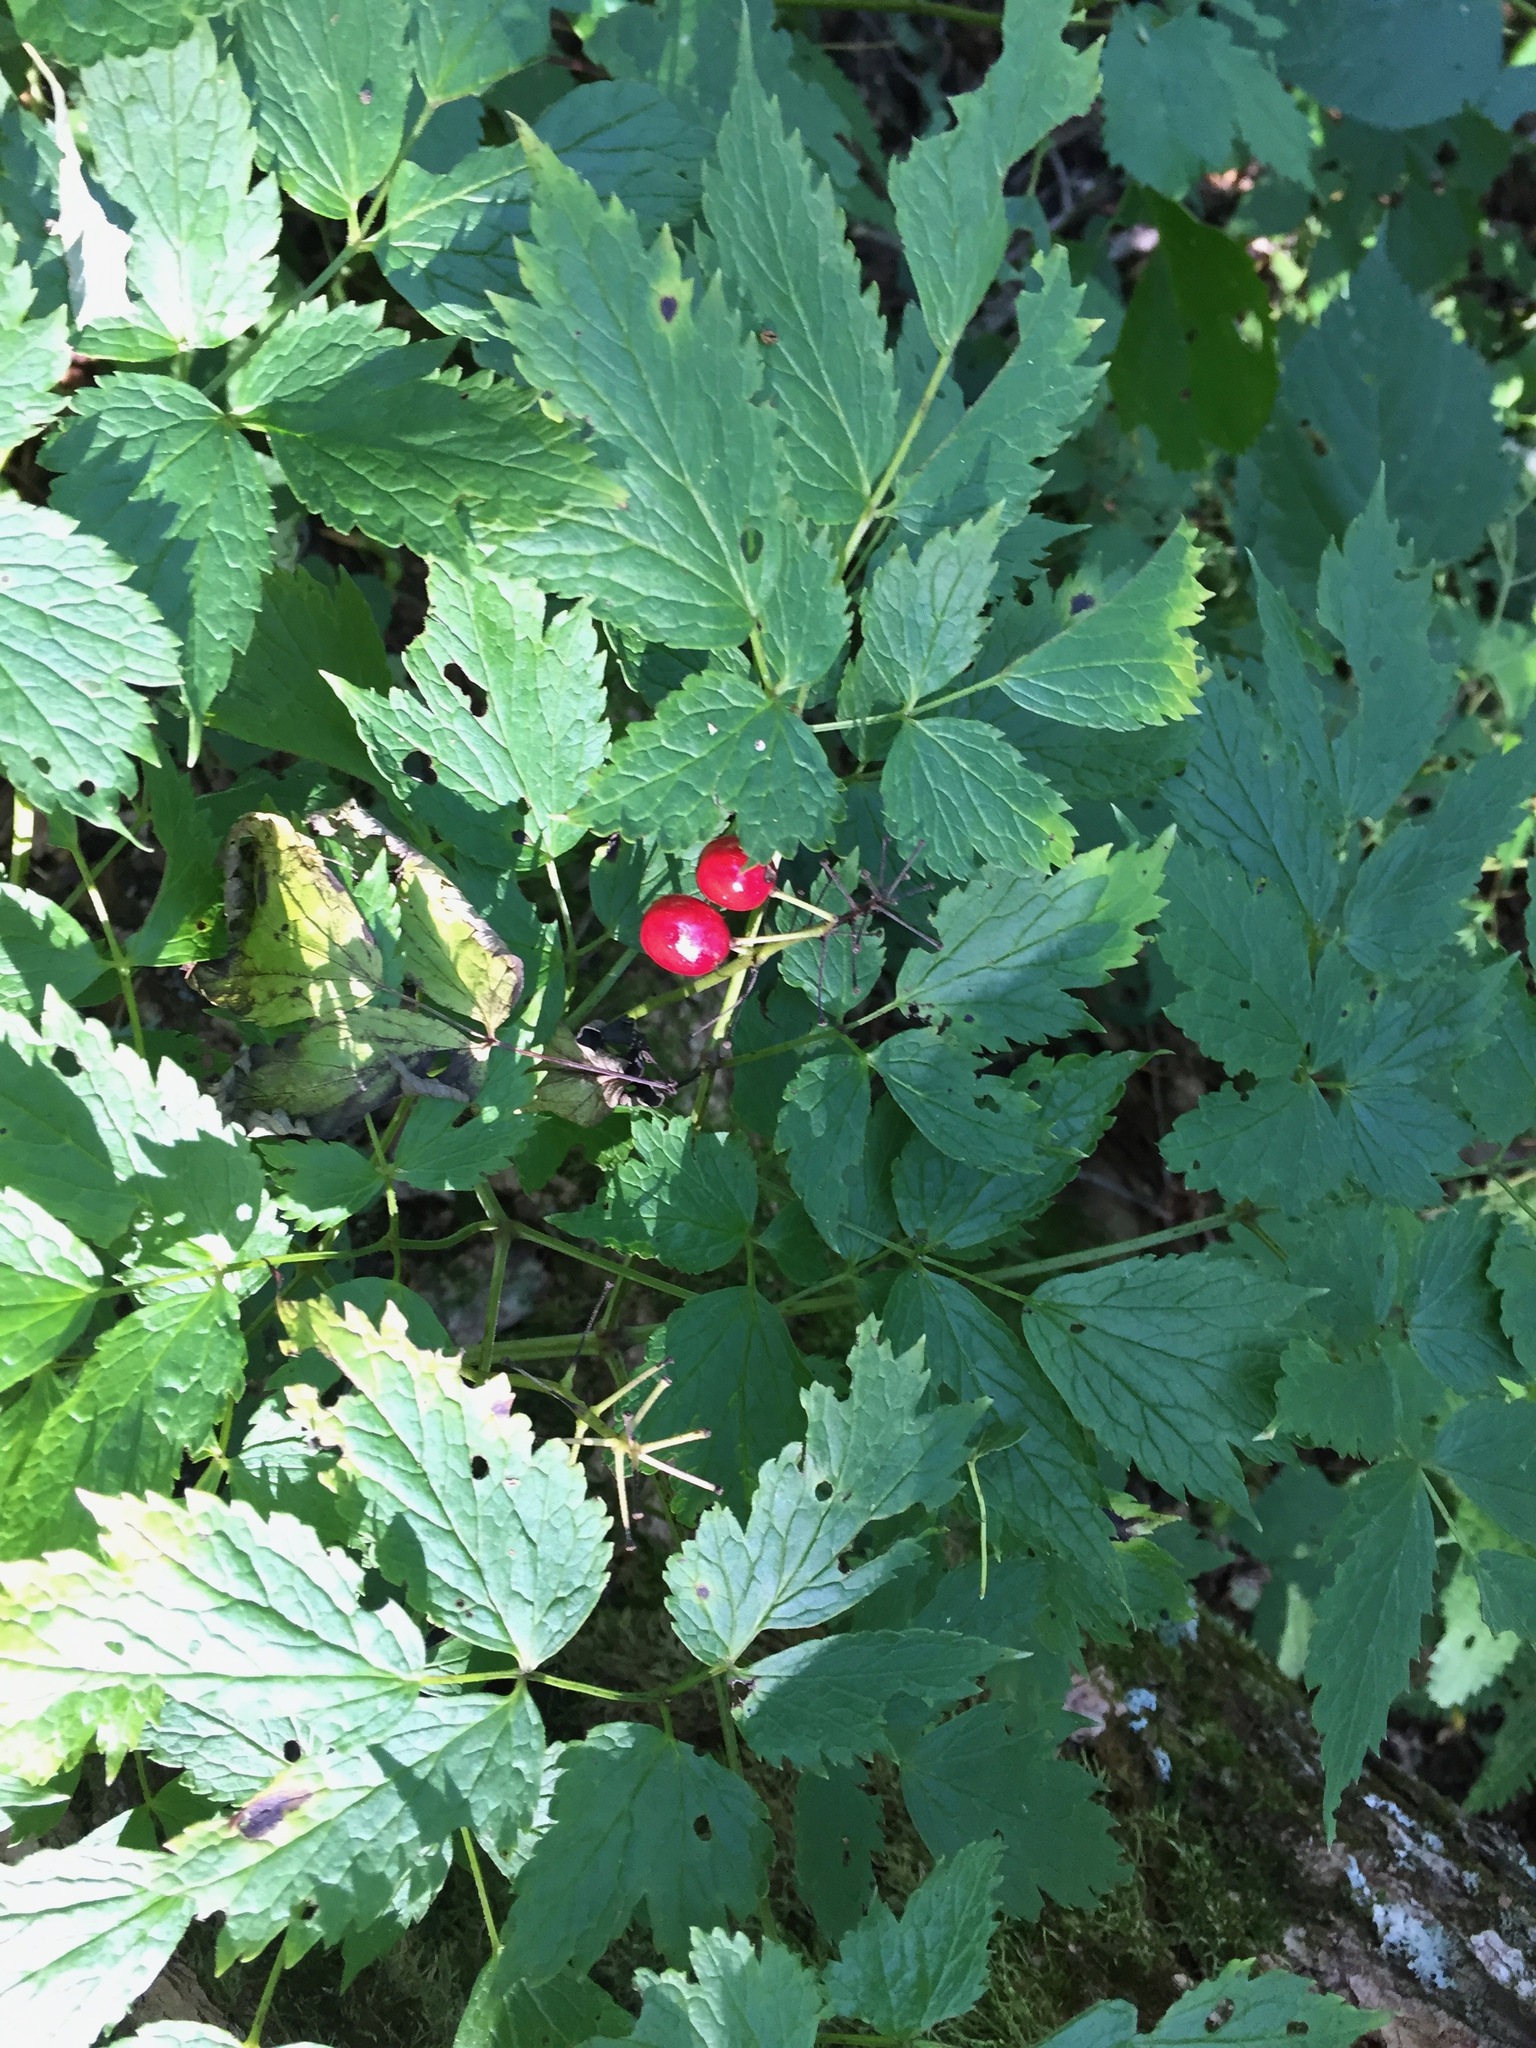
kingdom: Plantae
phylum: Tracheophyta
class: Magnoliopsida
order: Ranunculales
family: Ranunculaceae
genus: Actaea
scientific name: Actaea rubra
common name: Red baneberry
